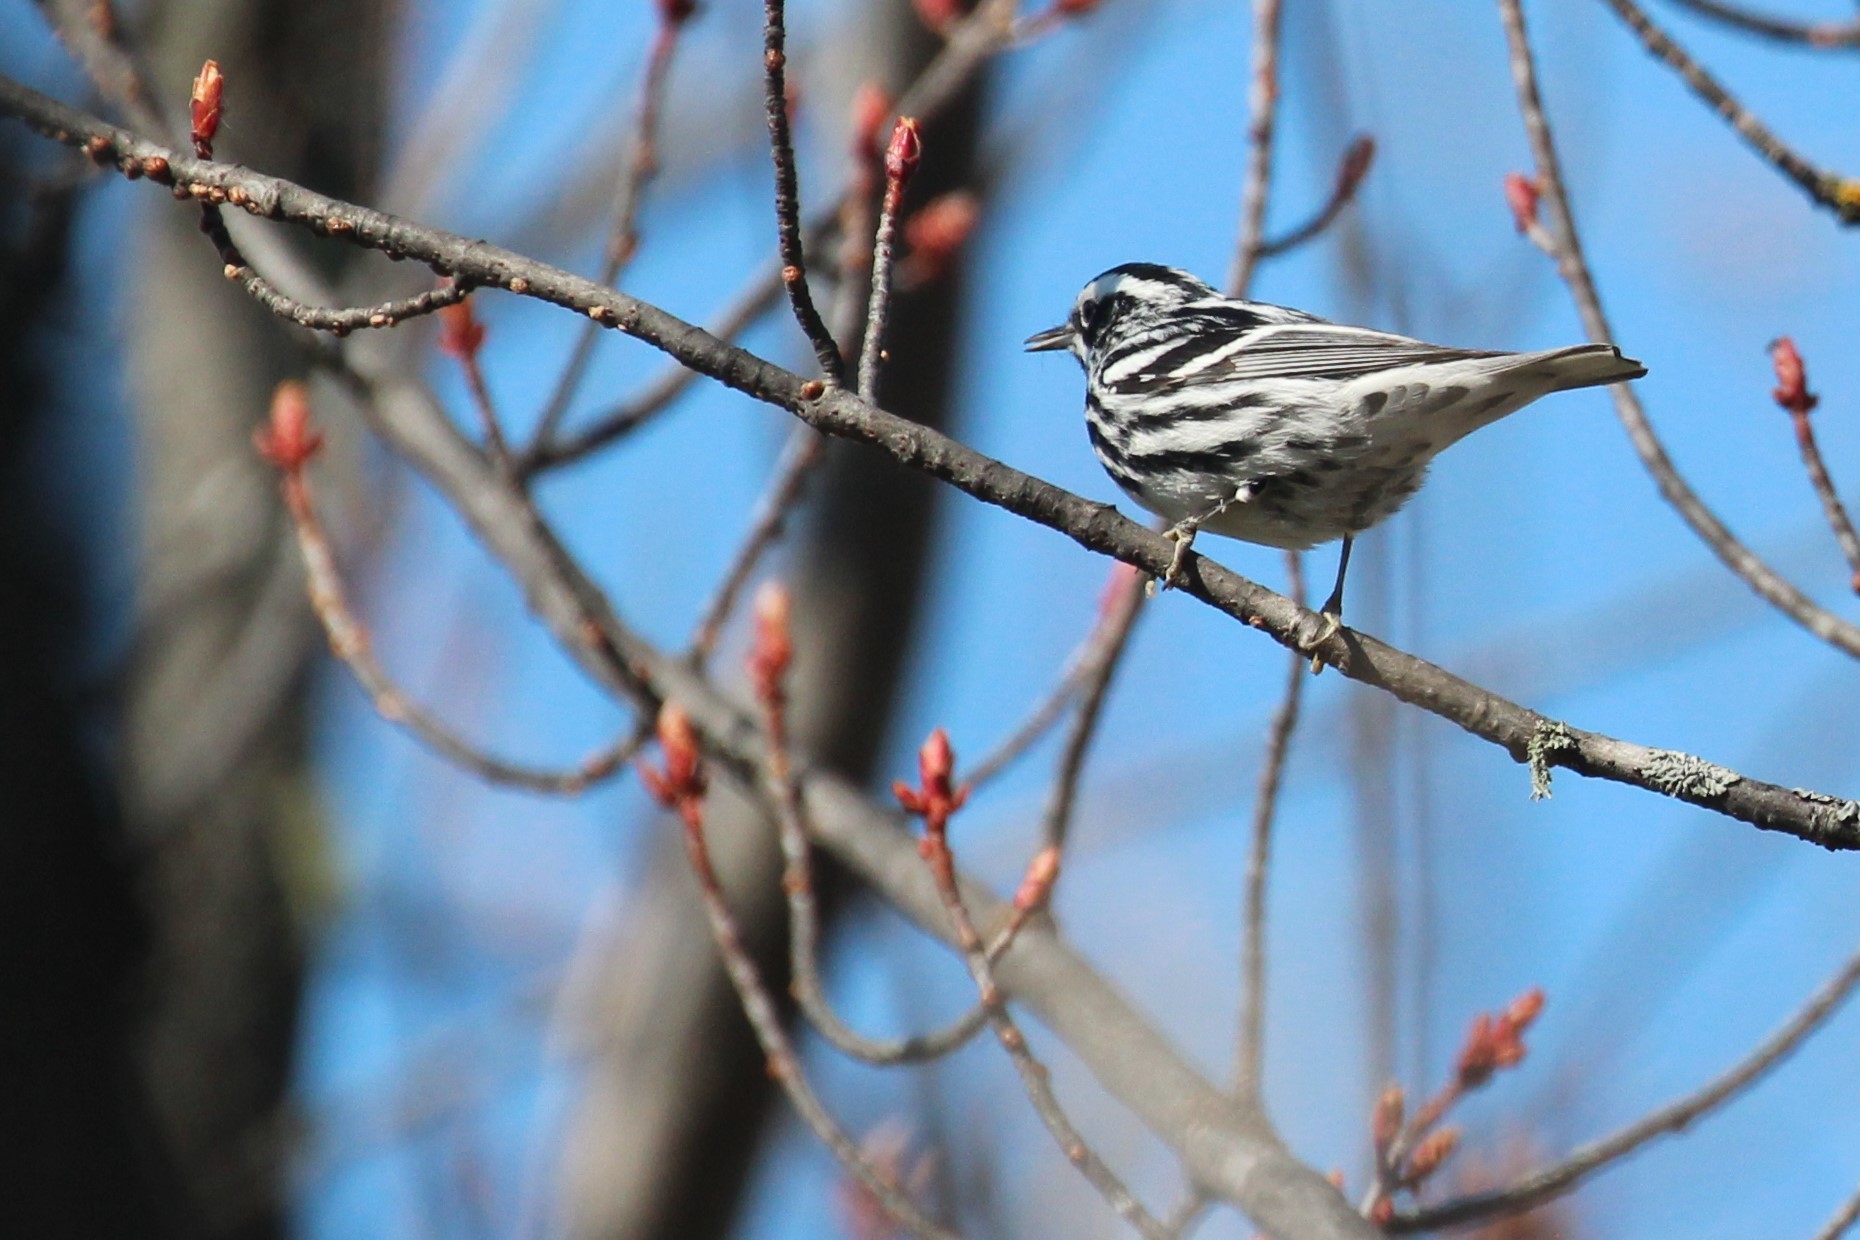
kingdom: Animalia
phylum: Chordata
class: Aves
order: Passeriformes
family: Parulidae
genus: Mniotilta
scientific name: Mniotilta varia
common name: Black-and-white warbler
